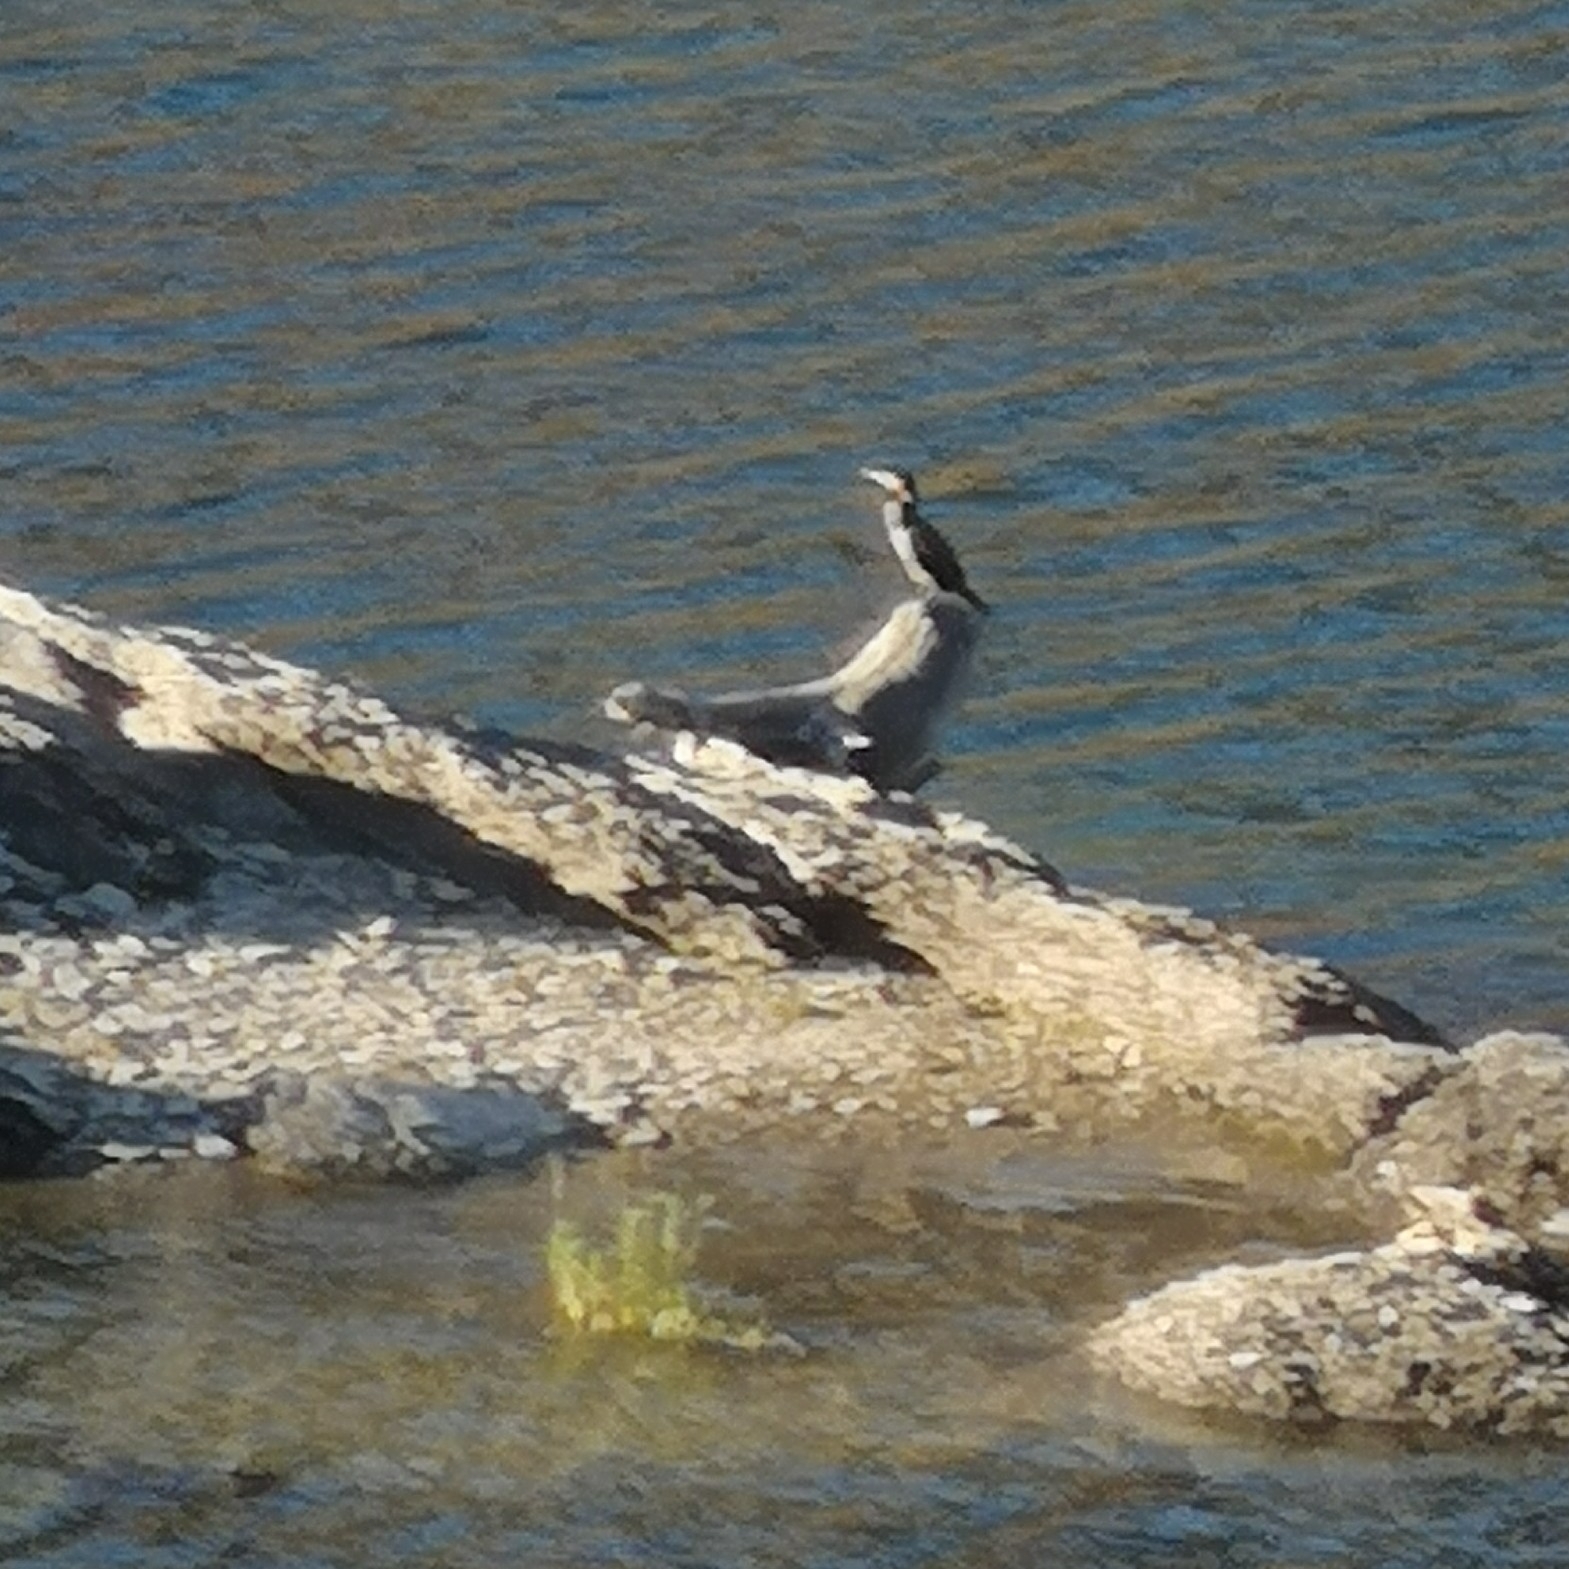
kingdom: Animalia
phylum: Chordata
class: Aves
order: Suliformes
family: Phalacrocoracidae
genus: Phalacrocorax
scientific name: Phalacrocorax carbo
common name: Great cormorant
